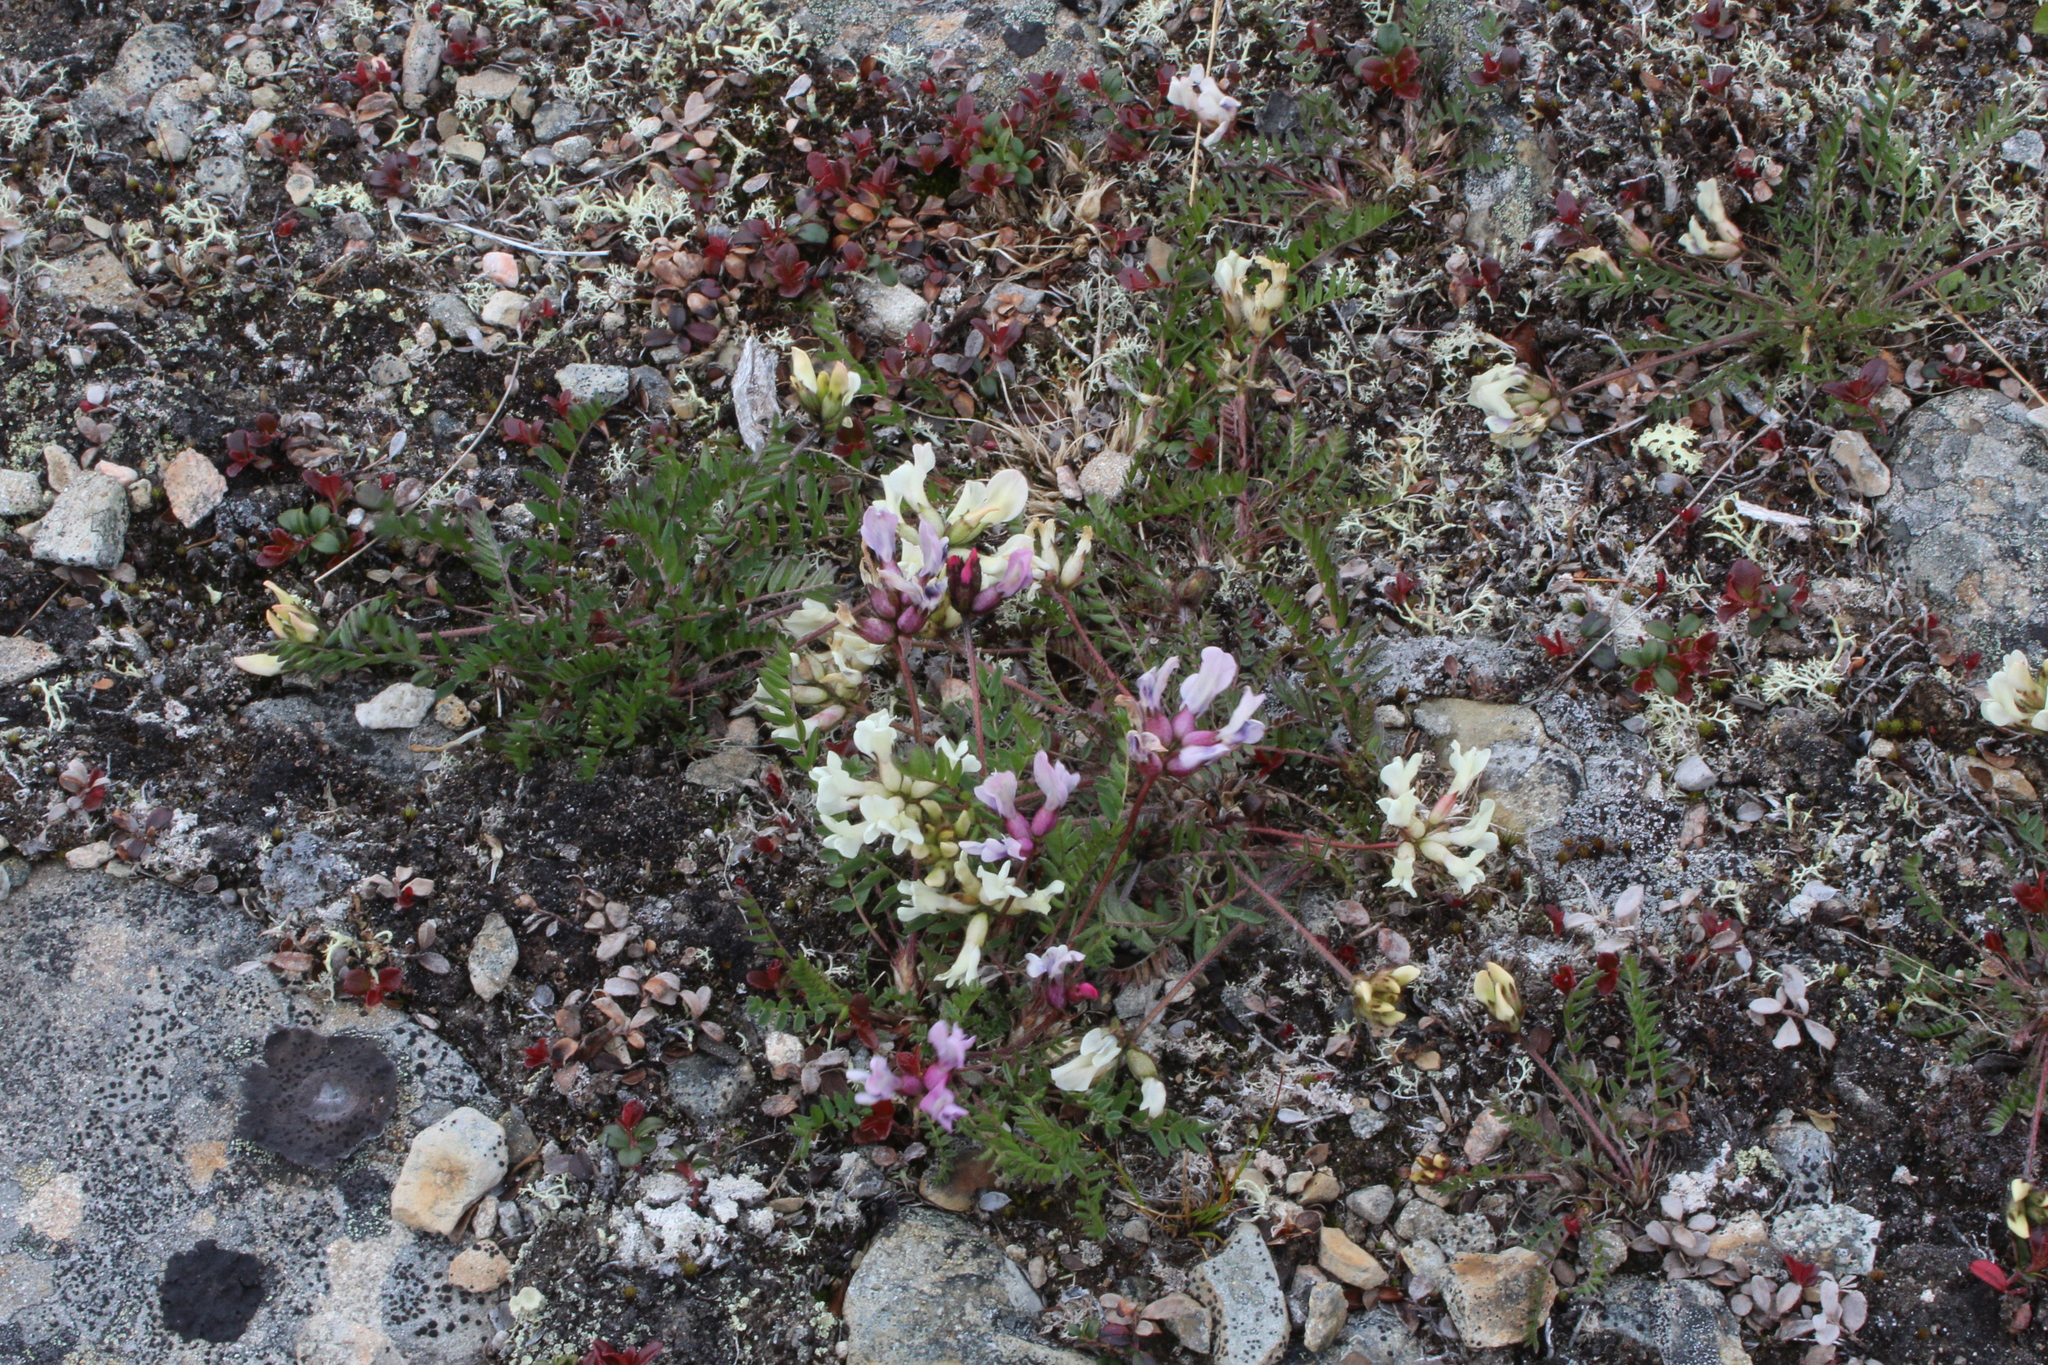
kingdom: Plantae
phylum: Tracheophyta
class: Magnoliopsida
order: Fabales
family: Fabaceae
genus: Oxytropis
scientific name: Oxytropis sordida
